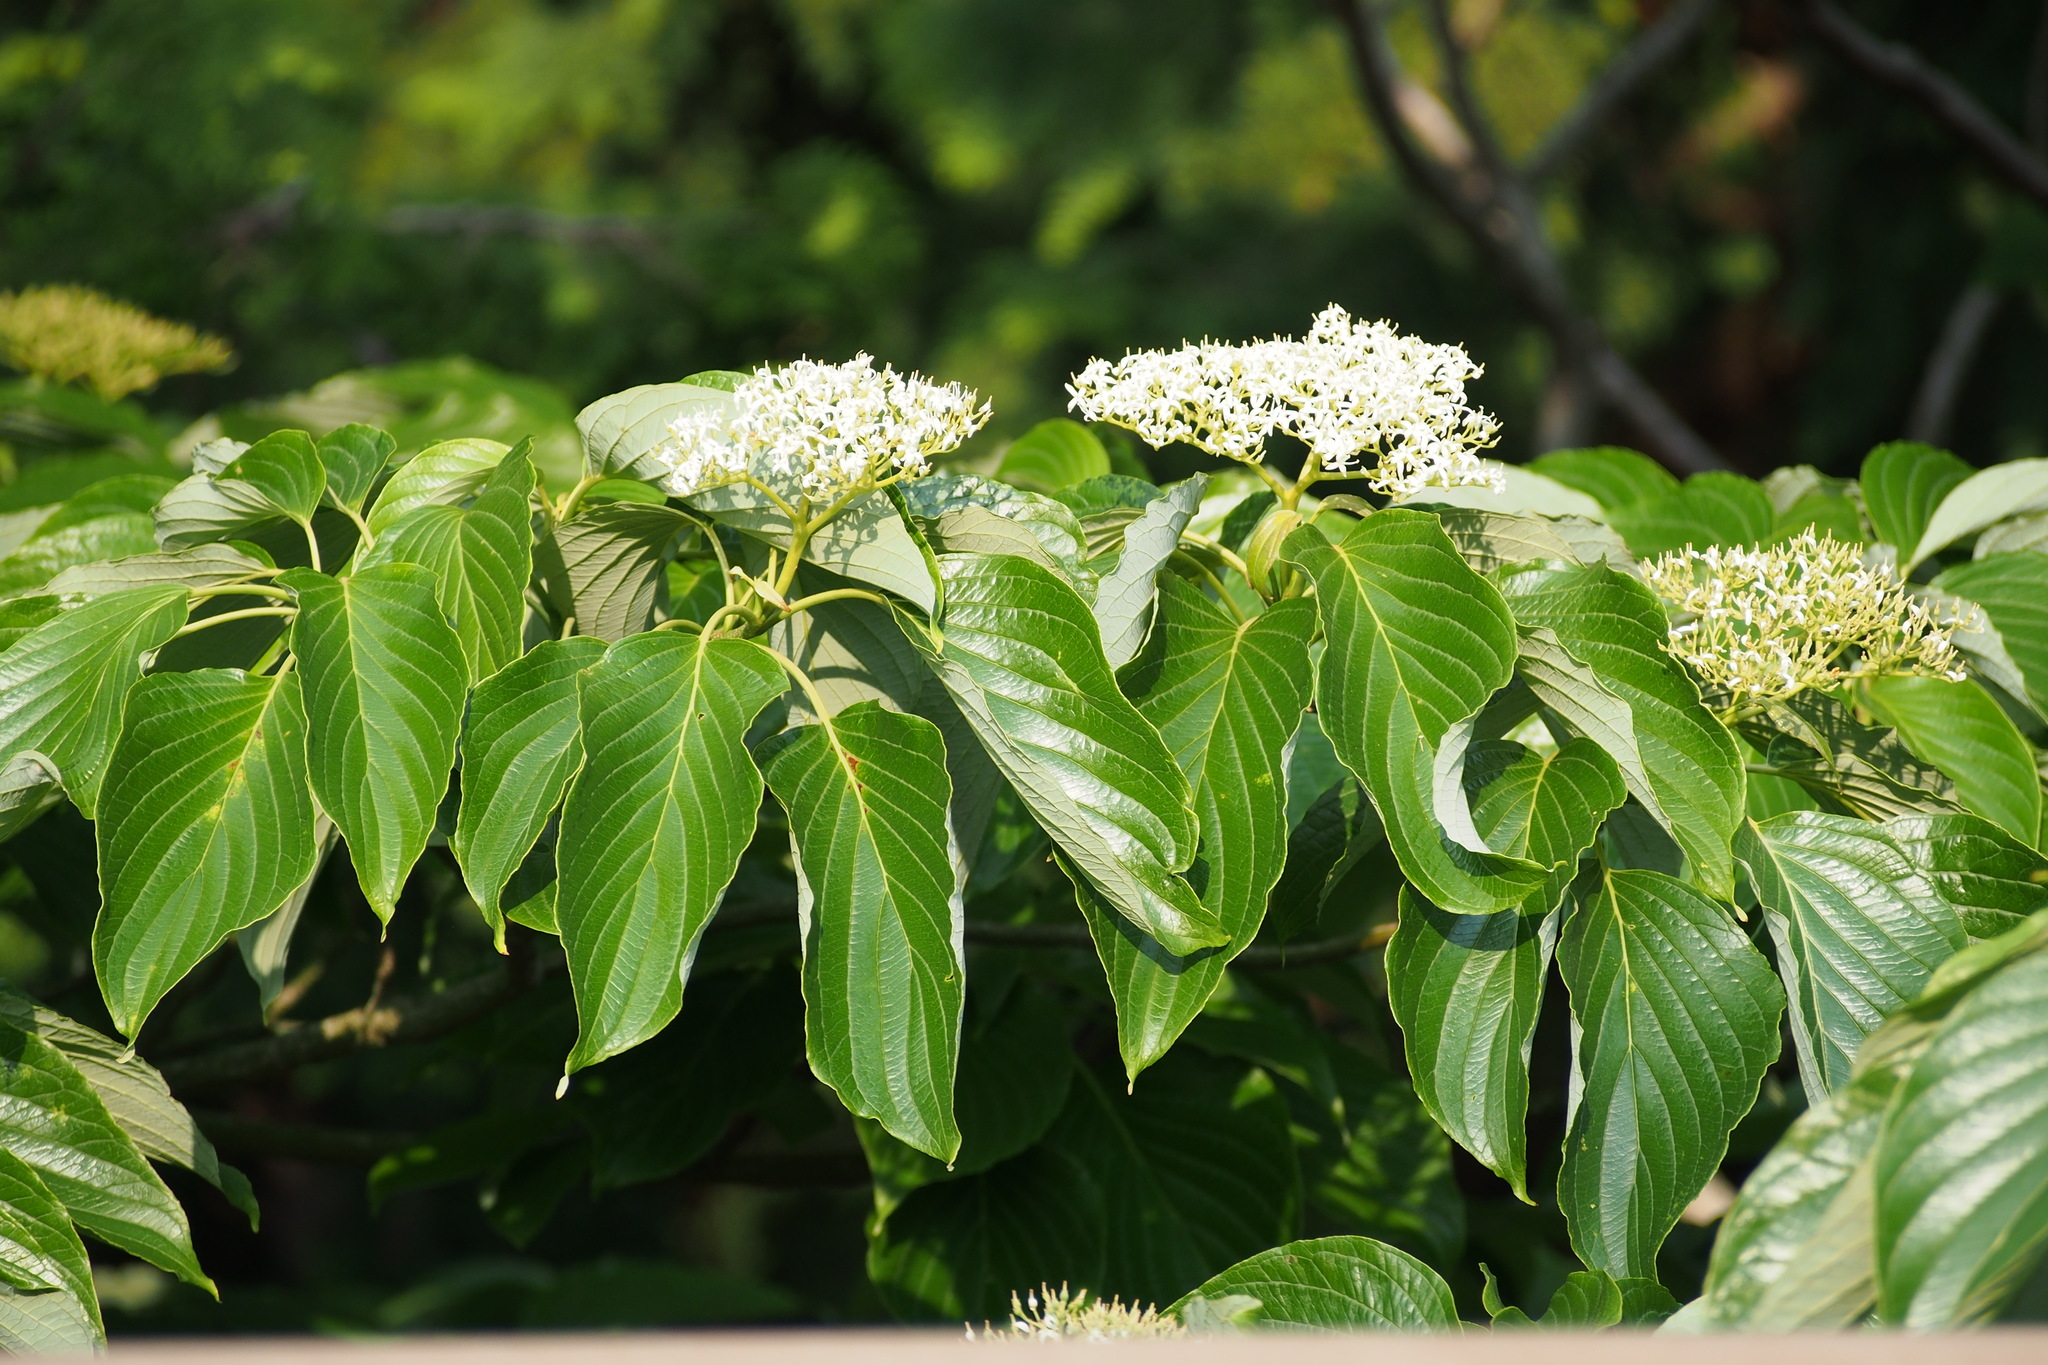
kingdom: Plantae
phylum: Tracheophyta
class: Magnoliopsida
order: Cornales
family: Cornaceae
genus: Cornus
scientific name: Cornus controversa
